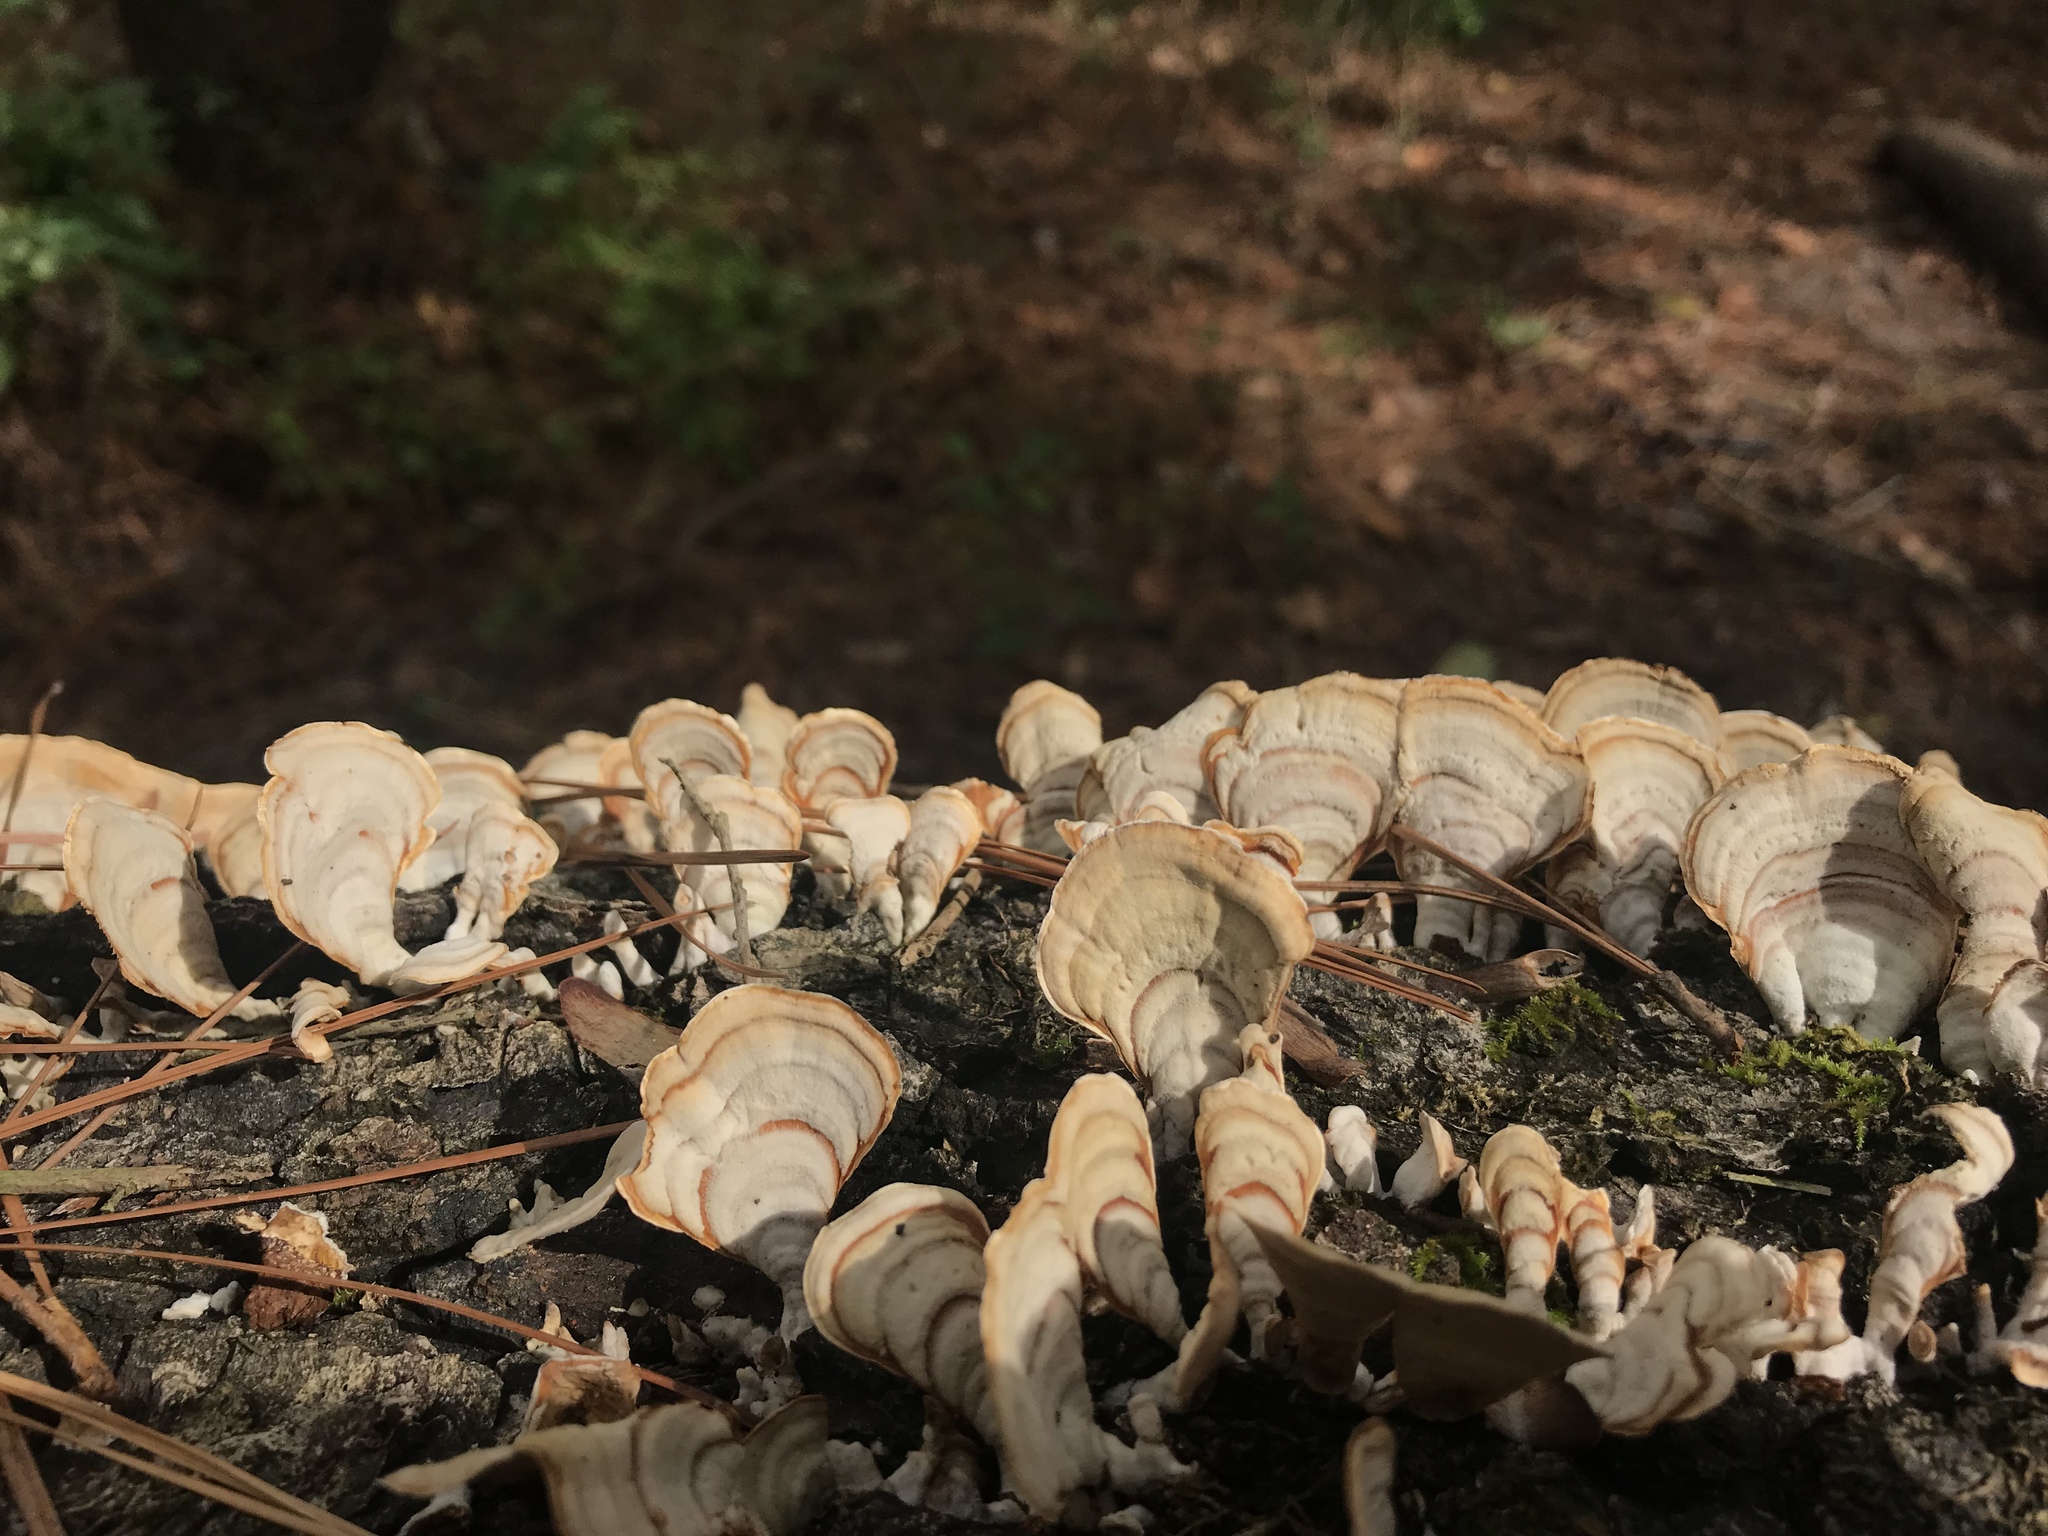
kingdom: Fungi
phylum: Basidiomycota
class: Agaricomycetes
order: Russulales
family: Stereaceae
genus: Stereum
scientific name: Stereum ostrea
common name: False turkeytail
